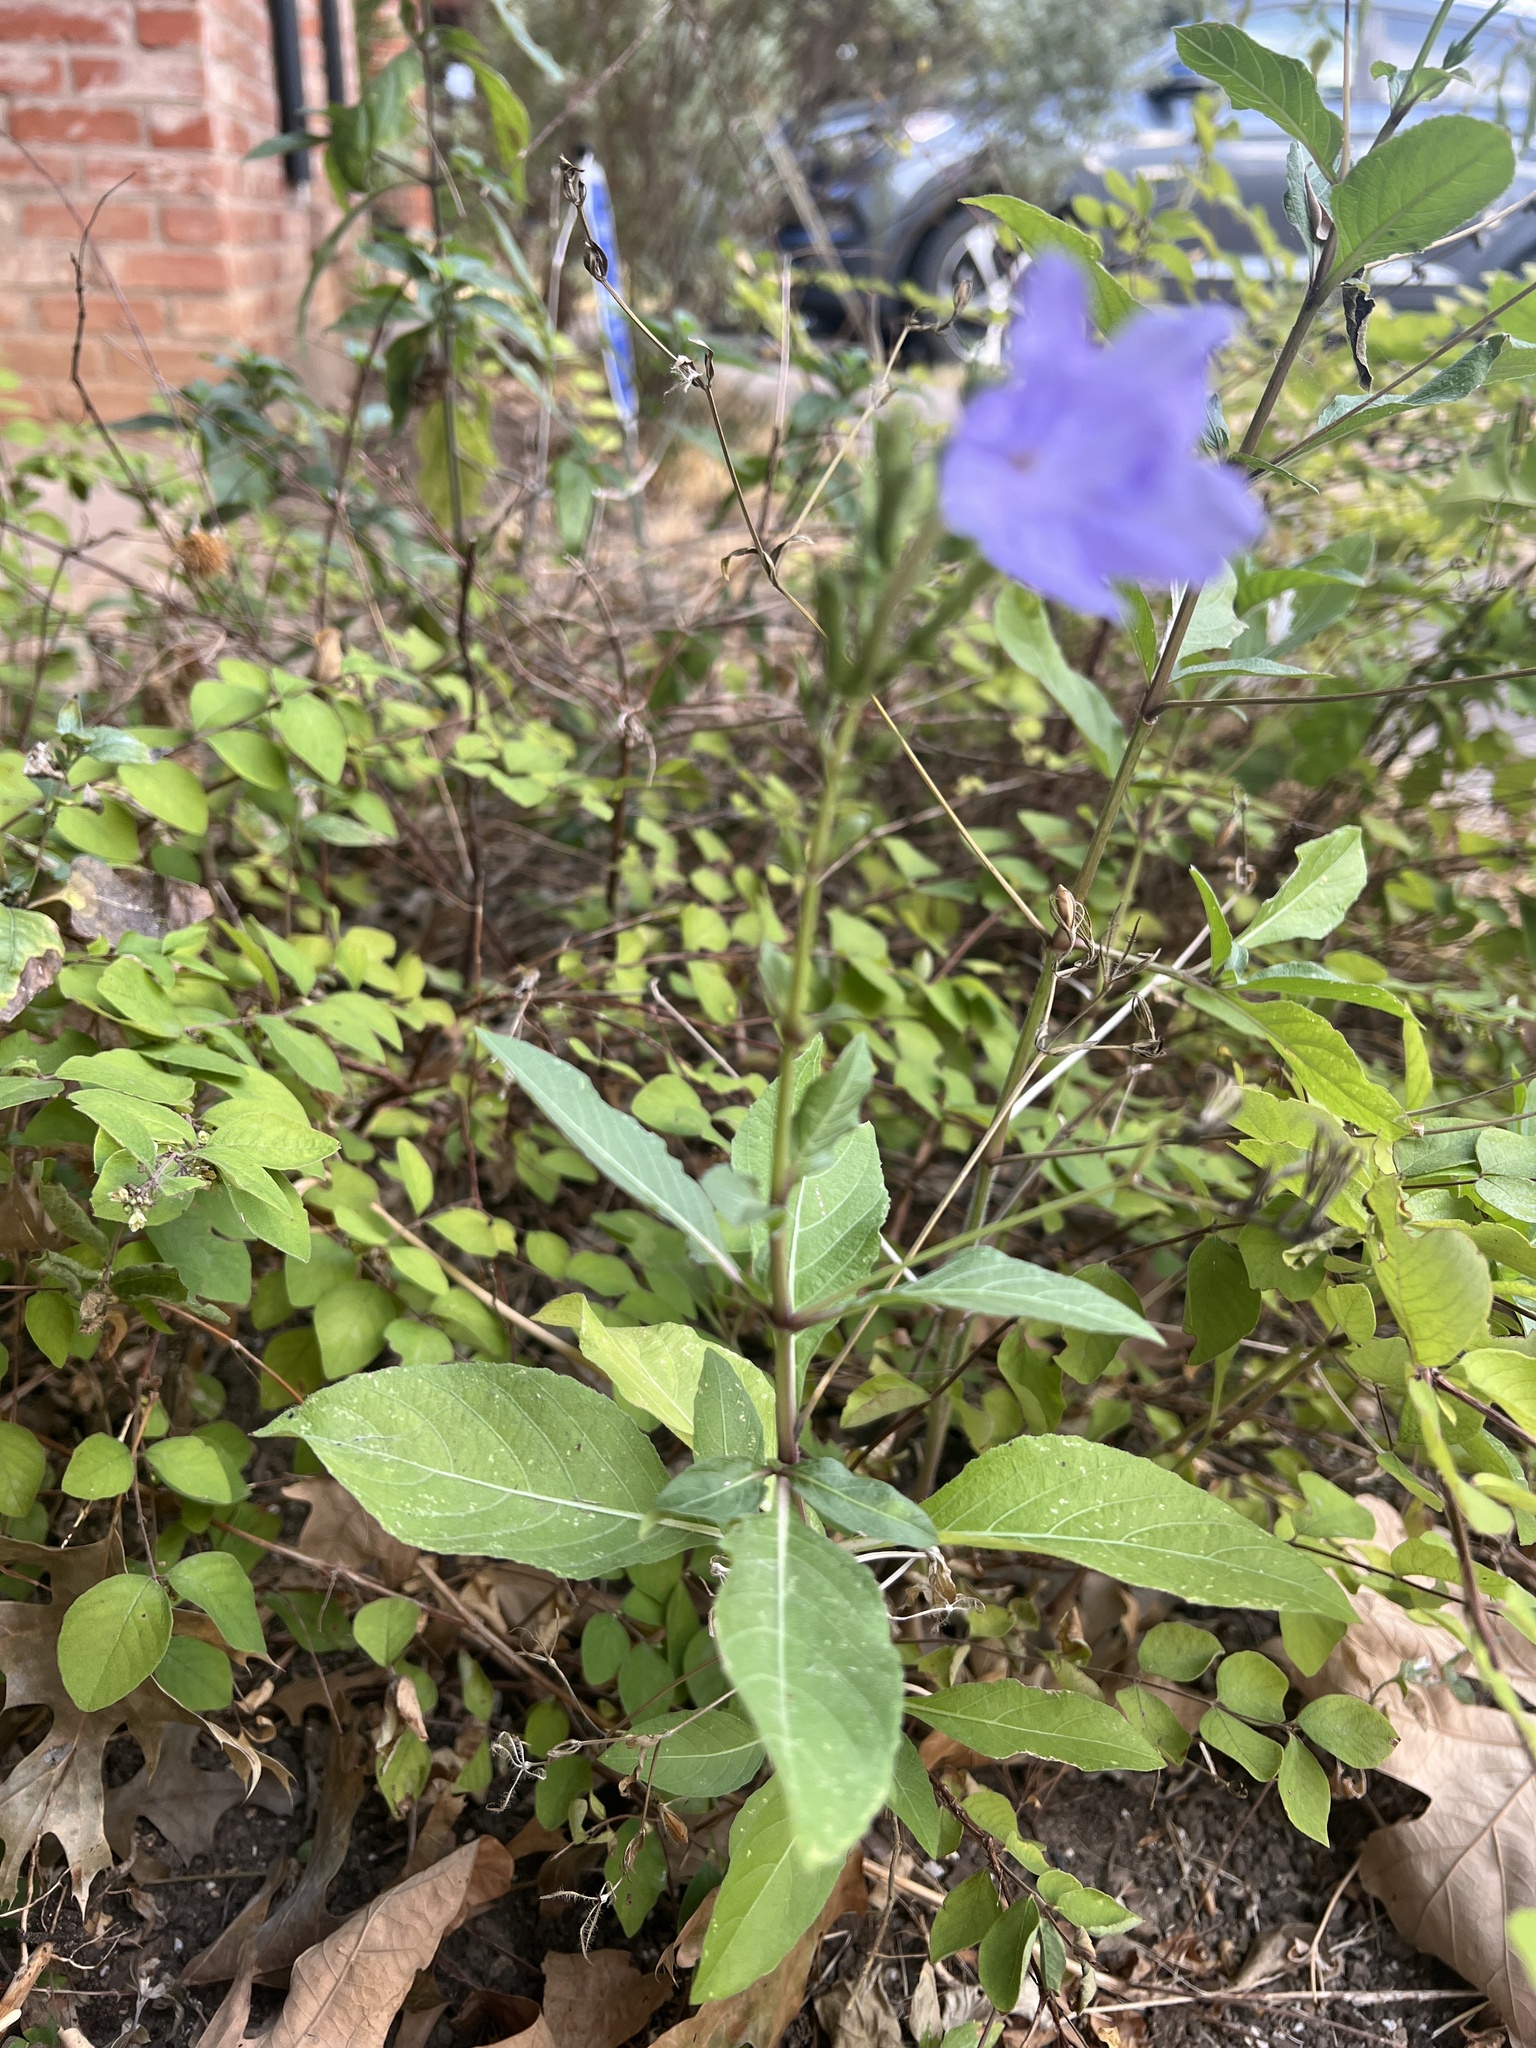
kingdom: Plantae
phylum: Tracheophyta
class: Magnoliopsida
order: Lamiales
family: Acanthaceae
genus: Ruellia
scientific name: Ruellia ciliatiflora
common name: Hairyflower wild petunia
